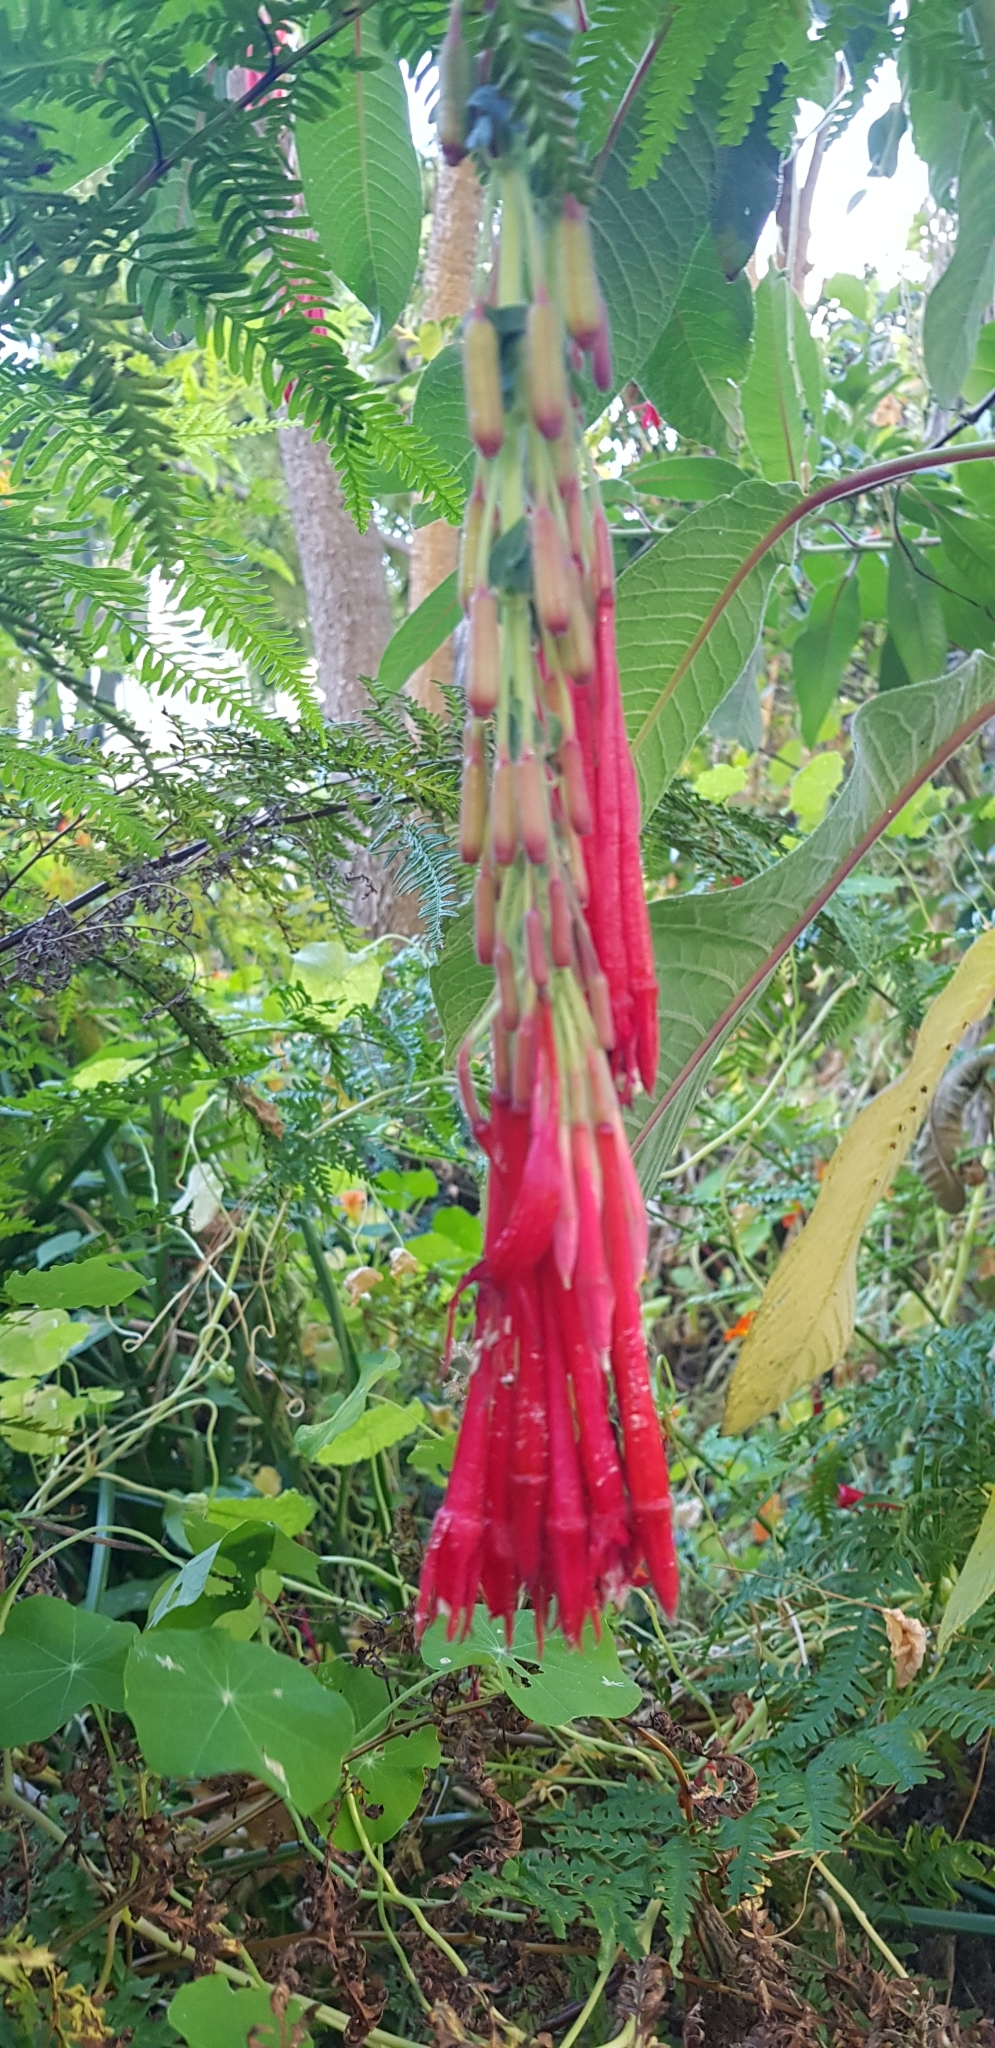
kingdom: Plantae
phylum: Tracheophyta
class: Magnoliopsida
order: Myrtales
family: Onagraceae
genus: Fuchsia
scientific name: Fuchsia boliviana
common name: Bolivian fuchsia
